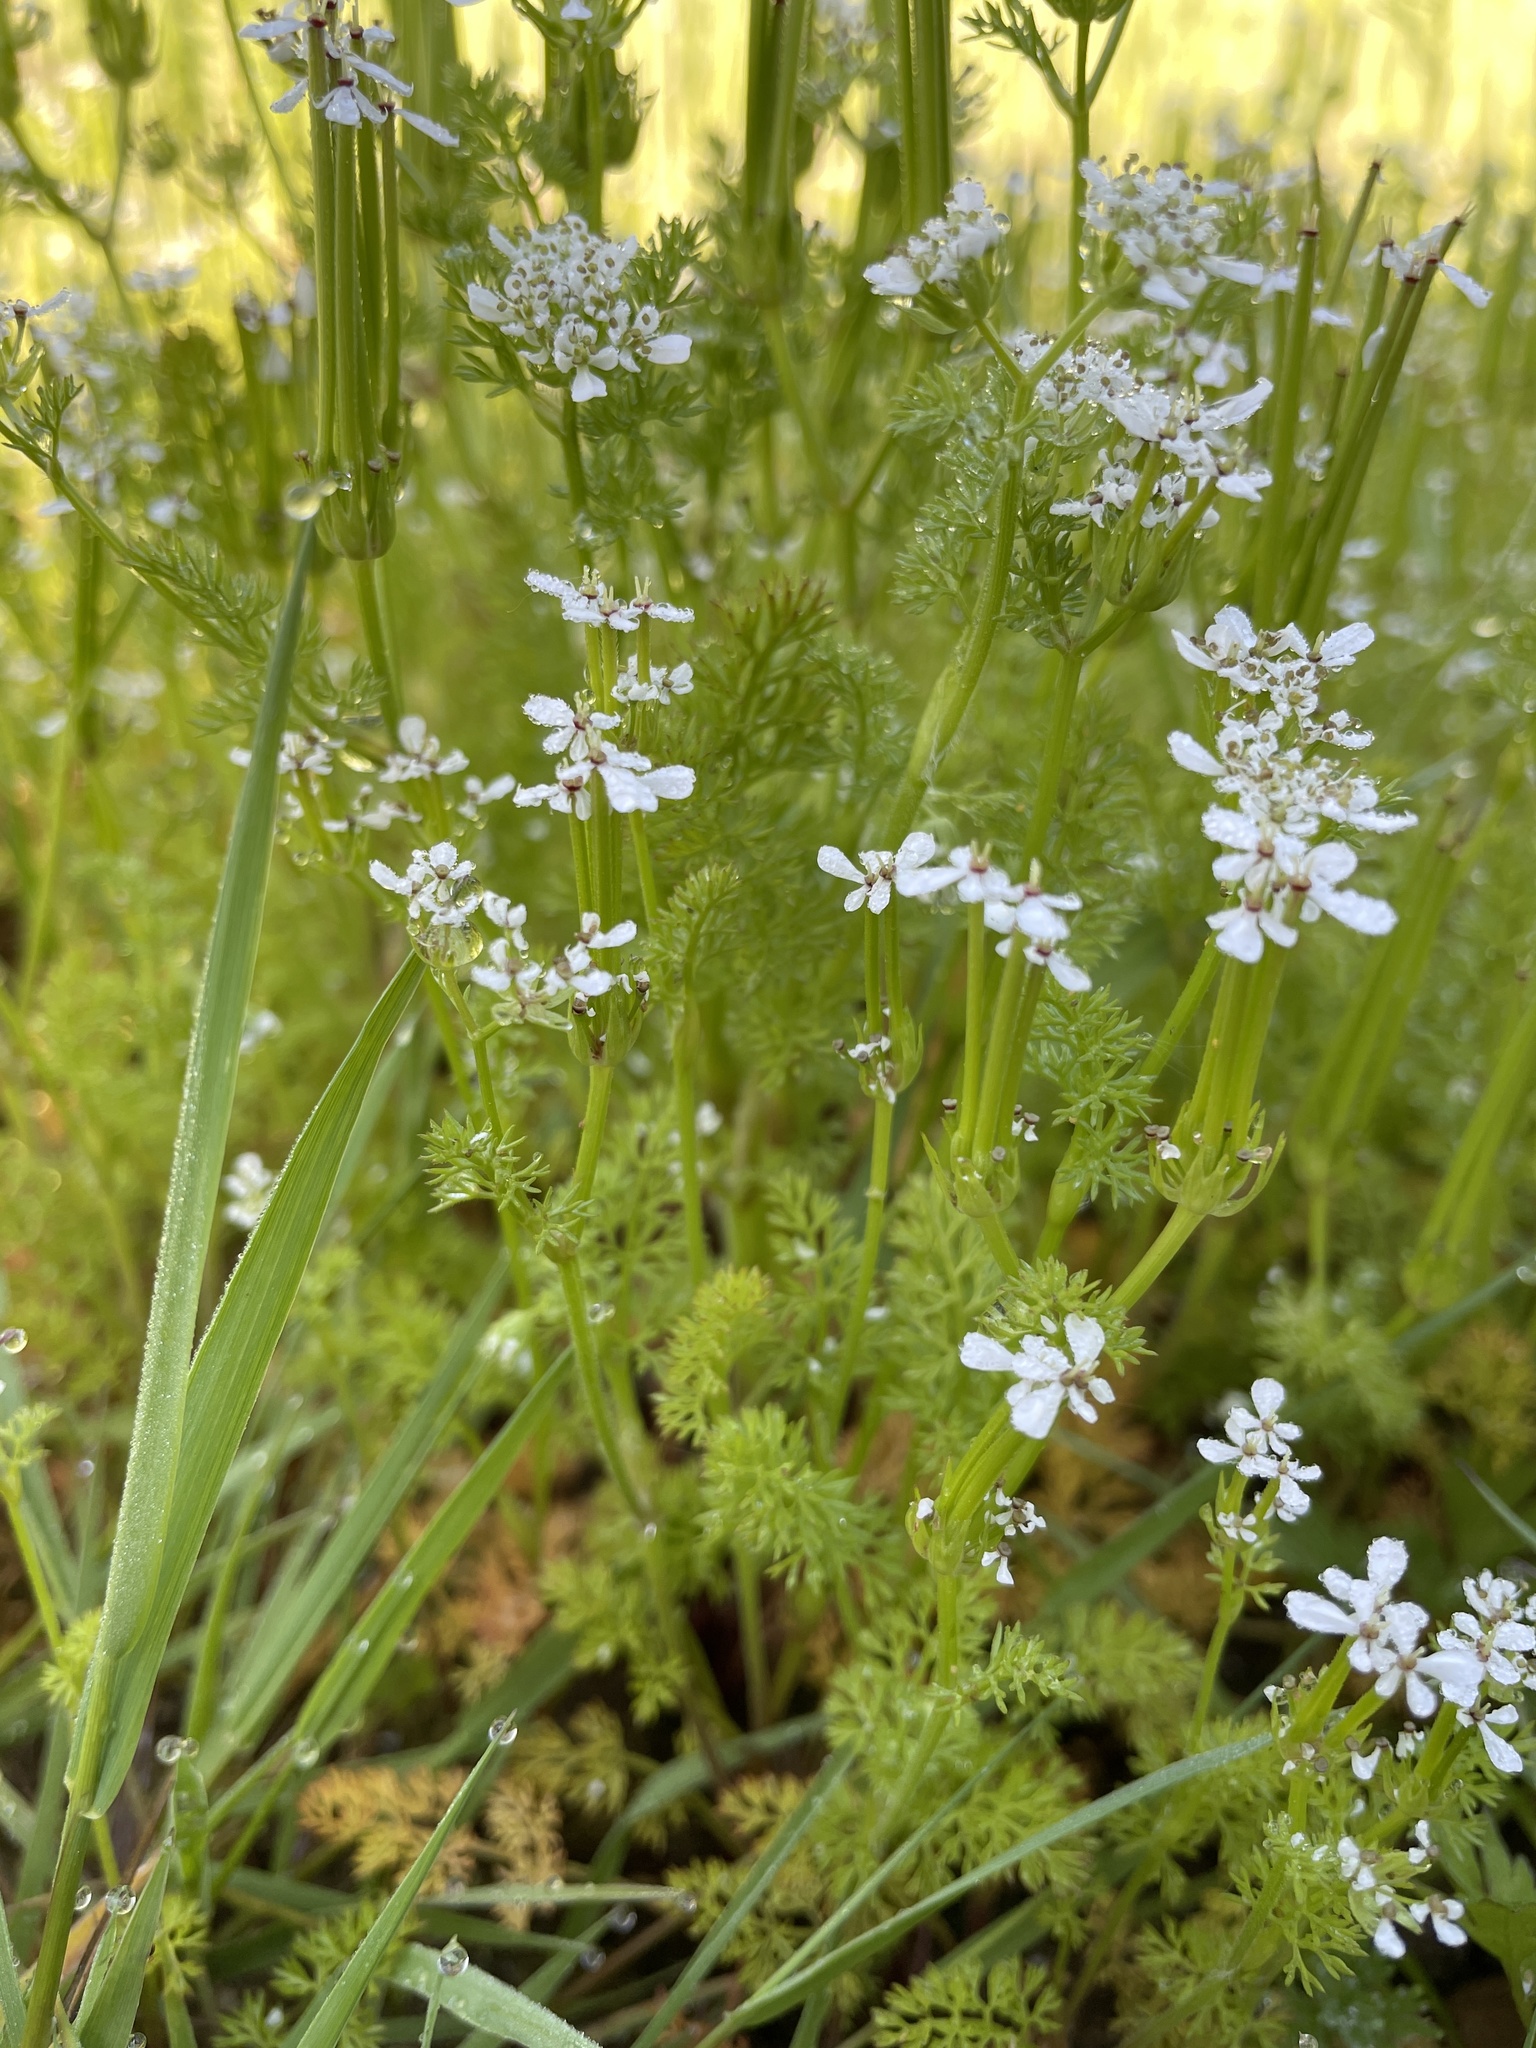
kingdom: Plantae
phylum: Tracheophyta
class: Magnoliopsida
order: Apiales
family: Apiaceae
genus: Scandix
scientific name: Scandix pecten-veneris
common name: Shepherd's-needle
